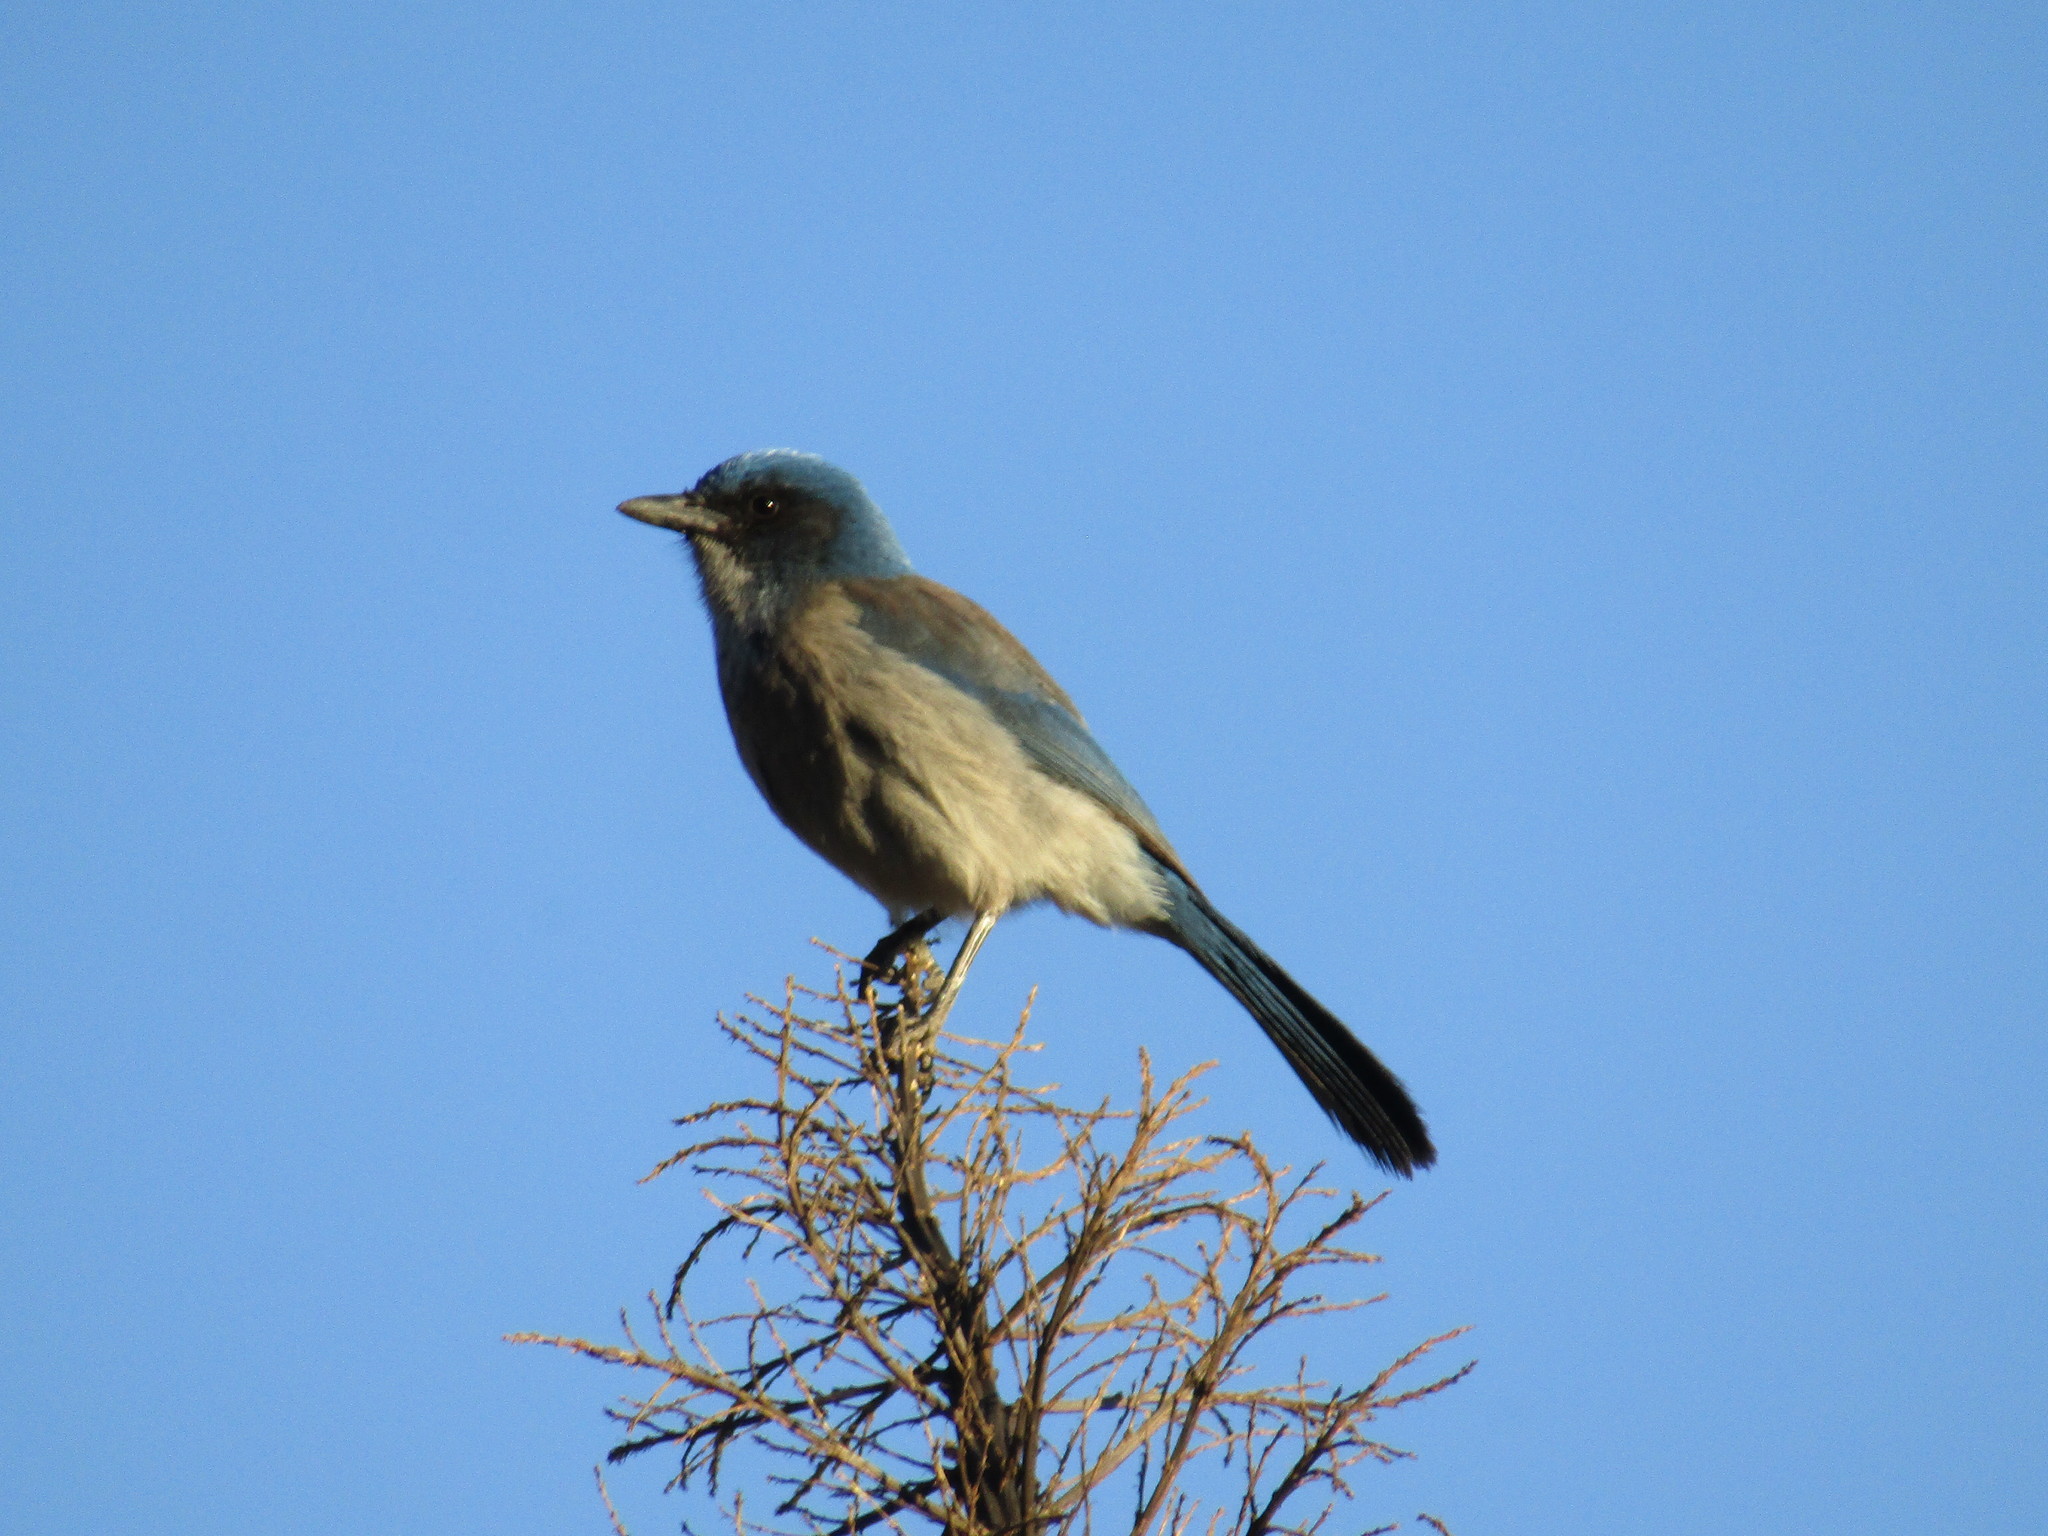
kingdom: Animalia
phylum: Chordata
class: Aves
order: Passeriformes
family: Corvidae
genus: Aphelocoma
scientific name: Aphelocoma woodhouseii
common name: Woodhouse's scrub-jay
